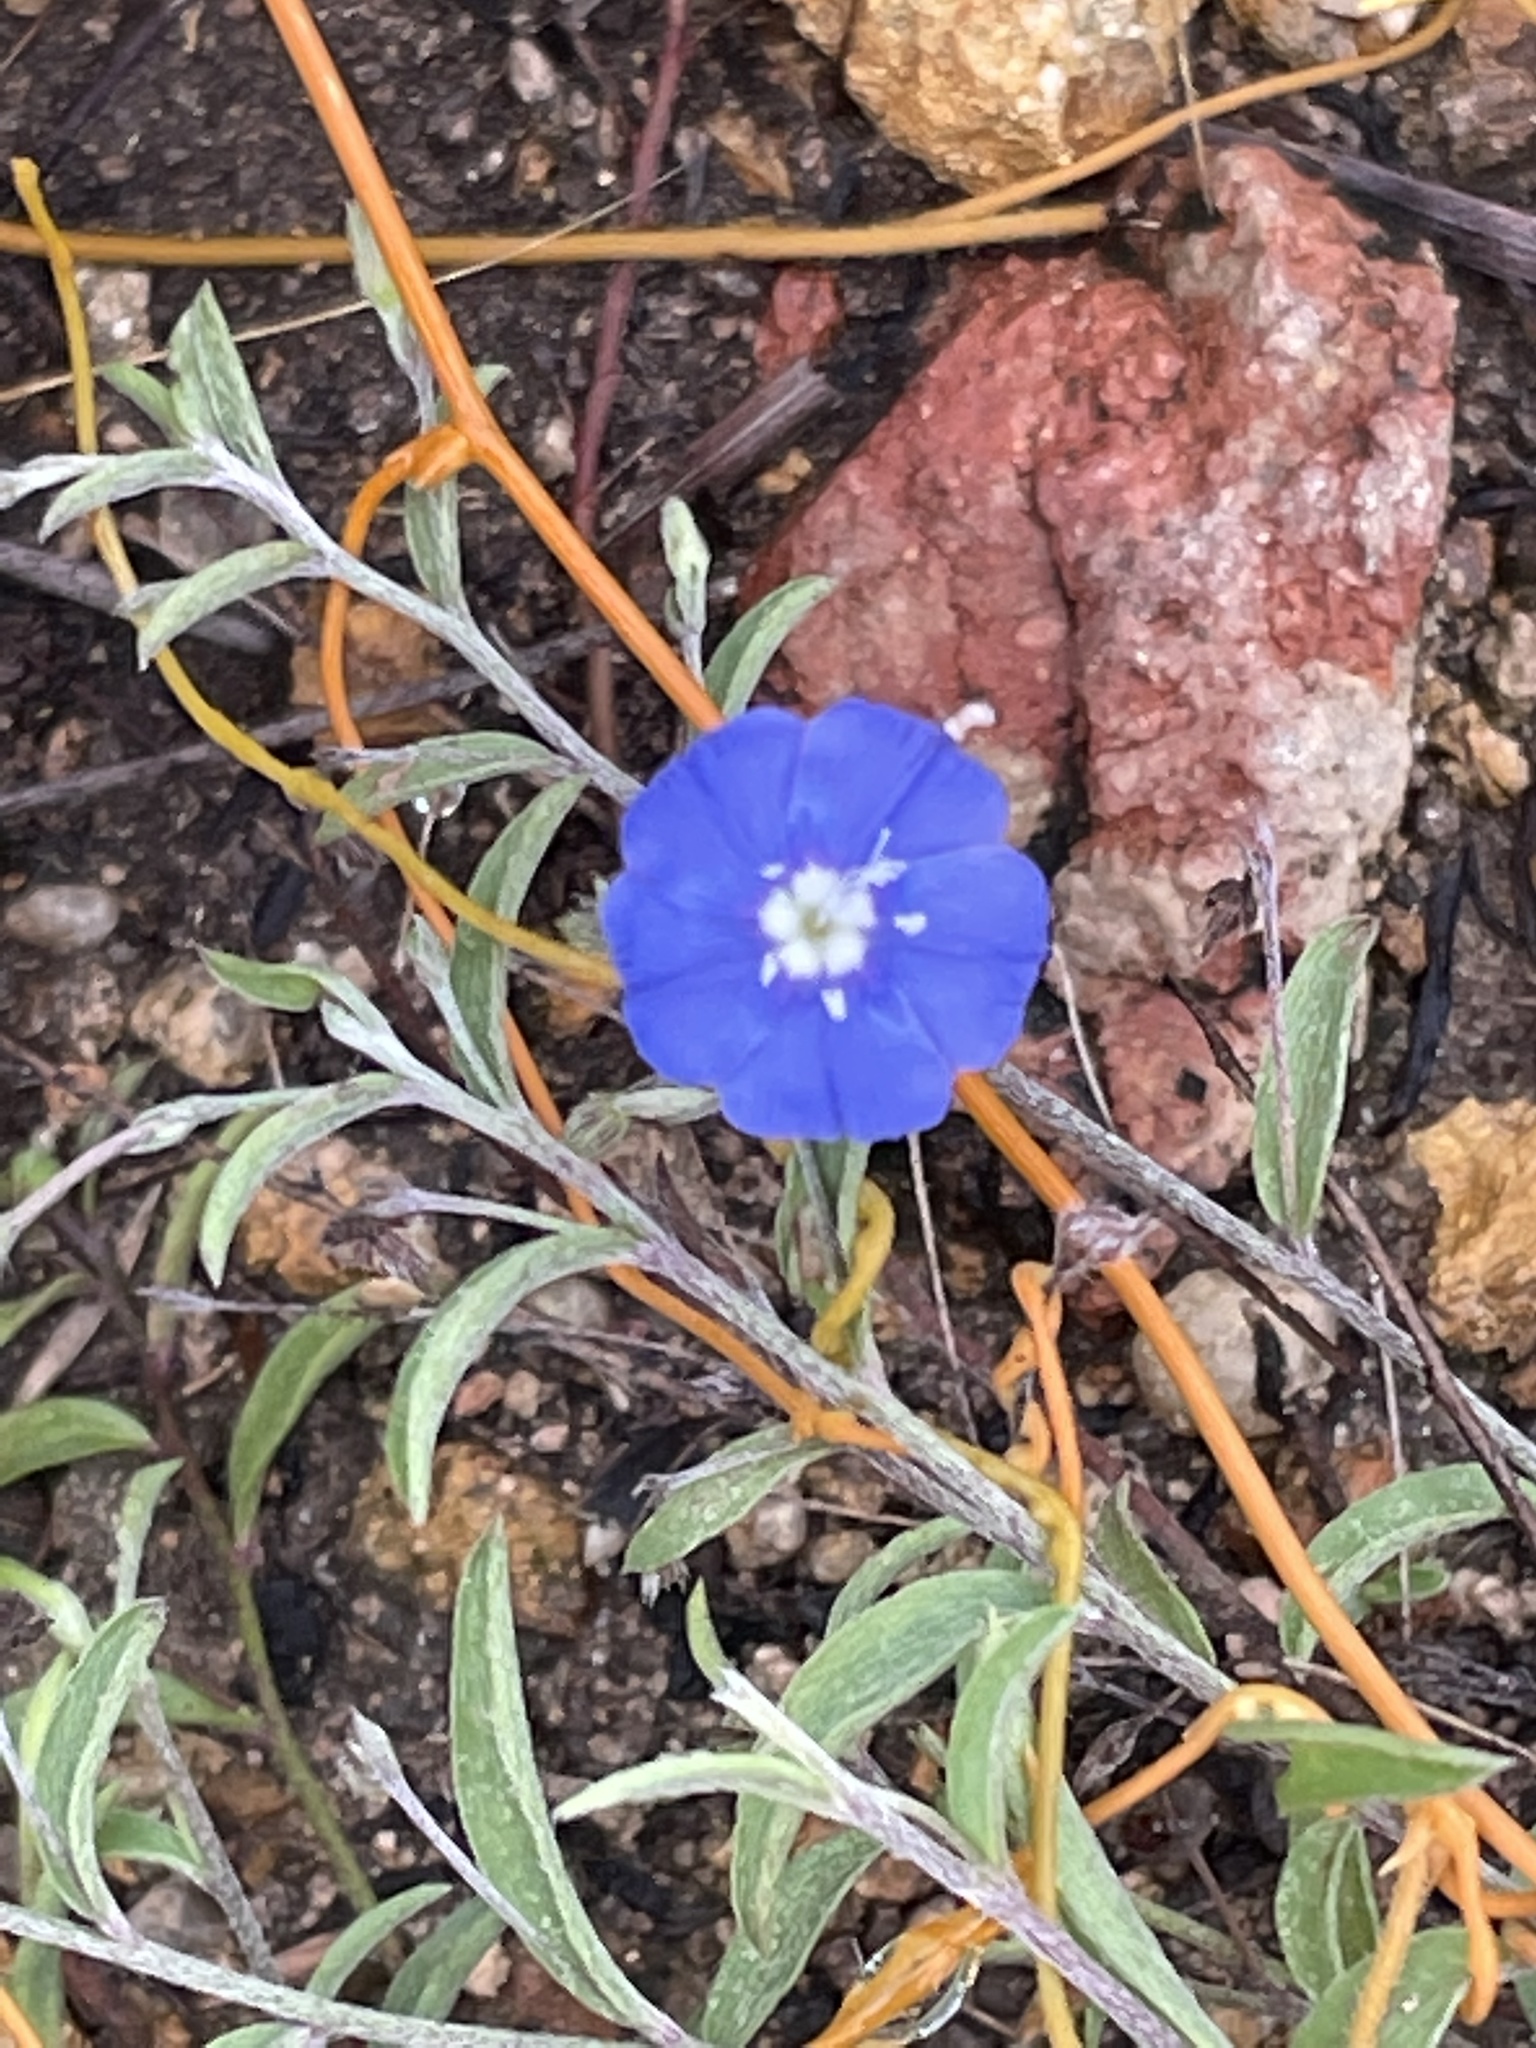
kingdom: Plantae
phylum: Tracheophyta
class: Magnoliopsida
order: Solanales
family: Convolvulaceae
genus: Evolvulus
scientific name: Evolvulus alsinoides
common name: Slender dwarf morning-glory
